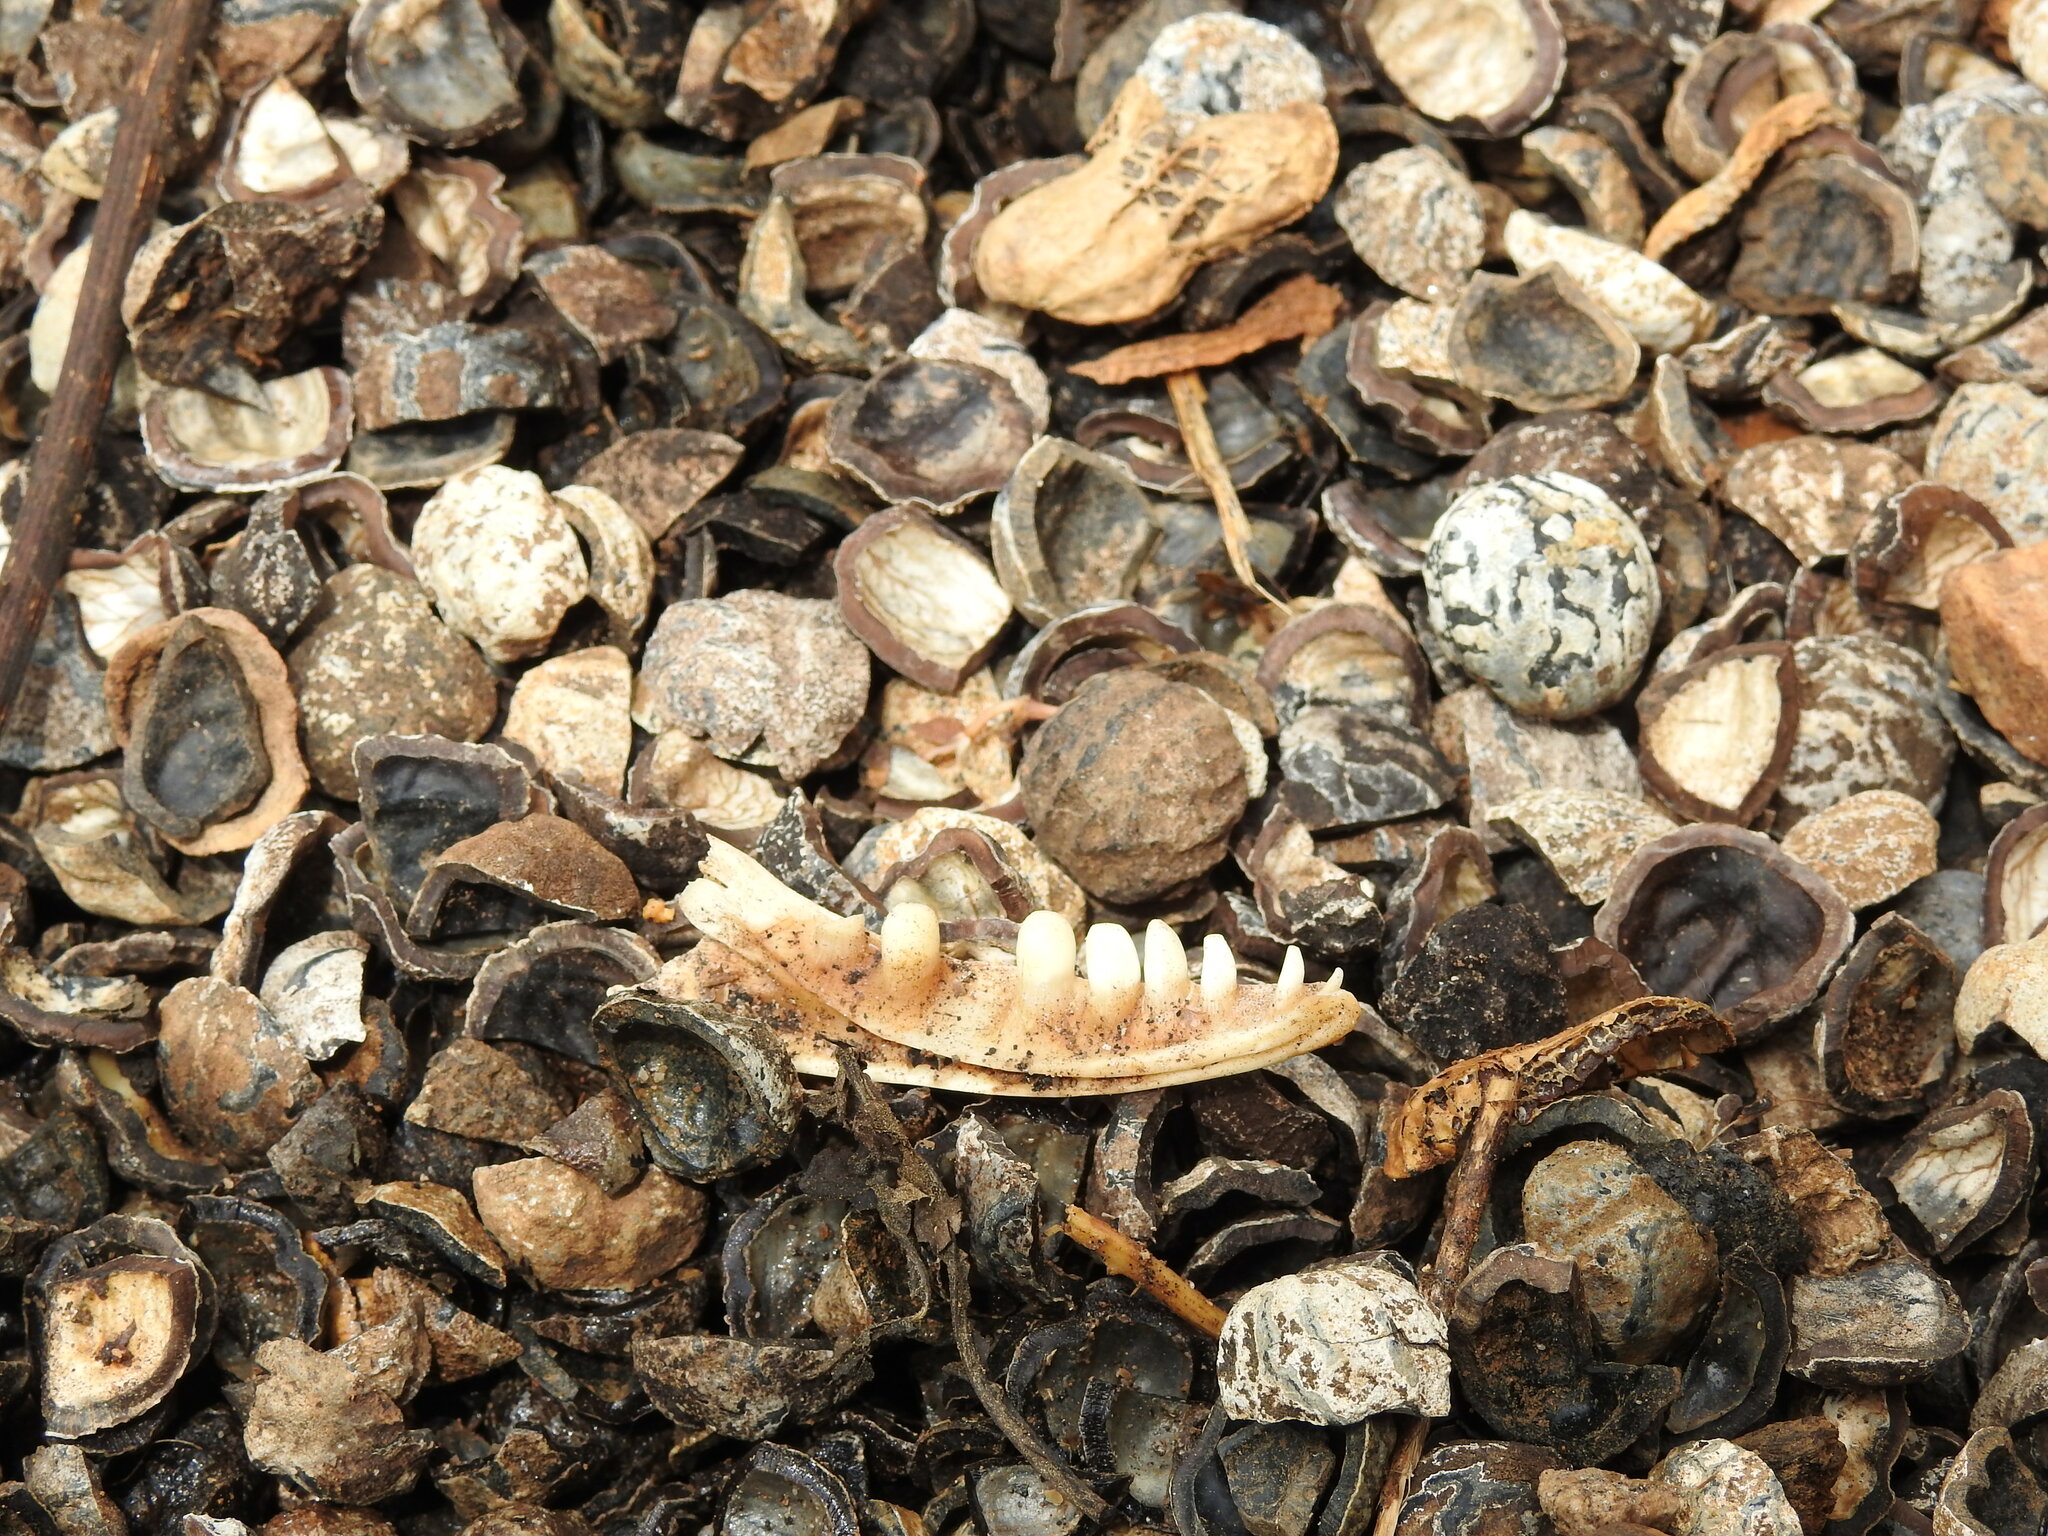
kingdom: Animalia
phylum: Chordata
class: Squamata
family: Varanidae
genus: Varanus
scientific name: Varanus niloticus
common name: Nile monitor
